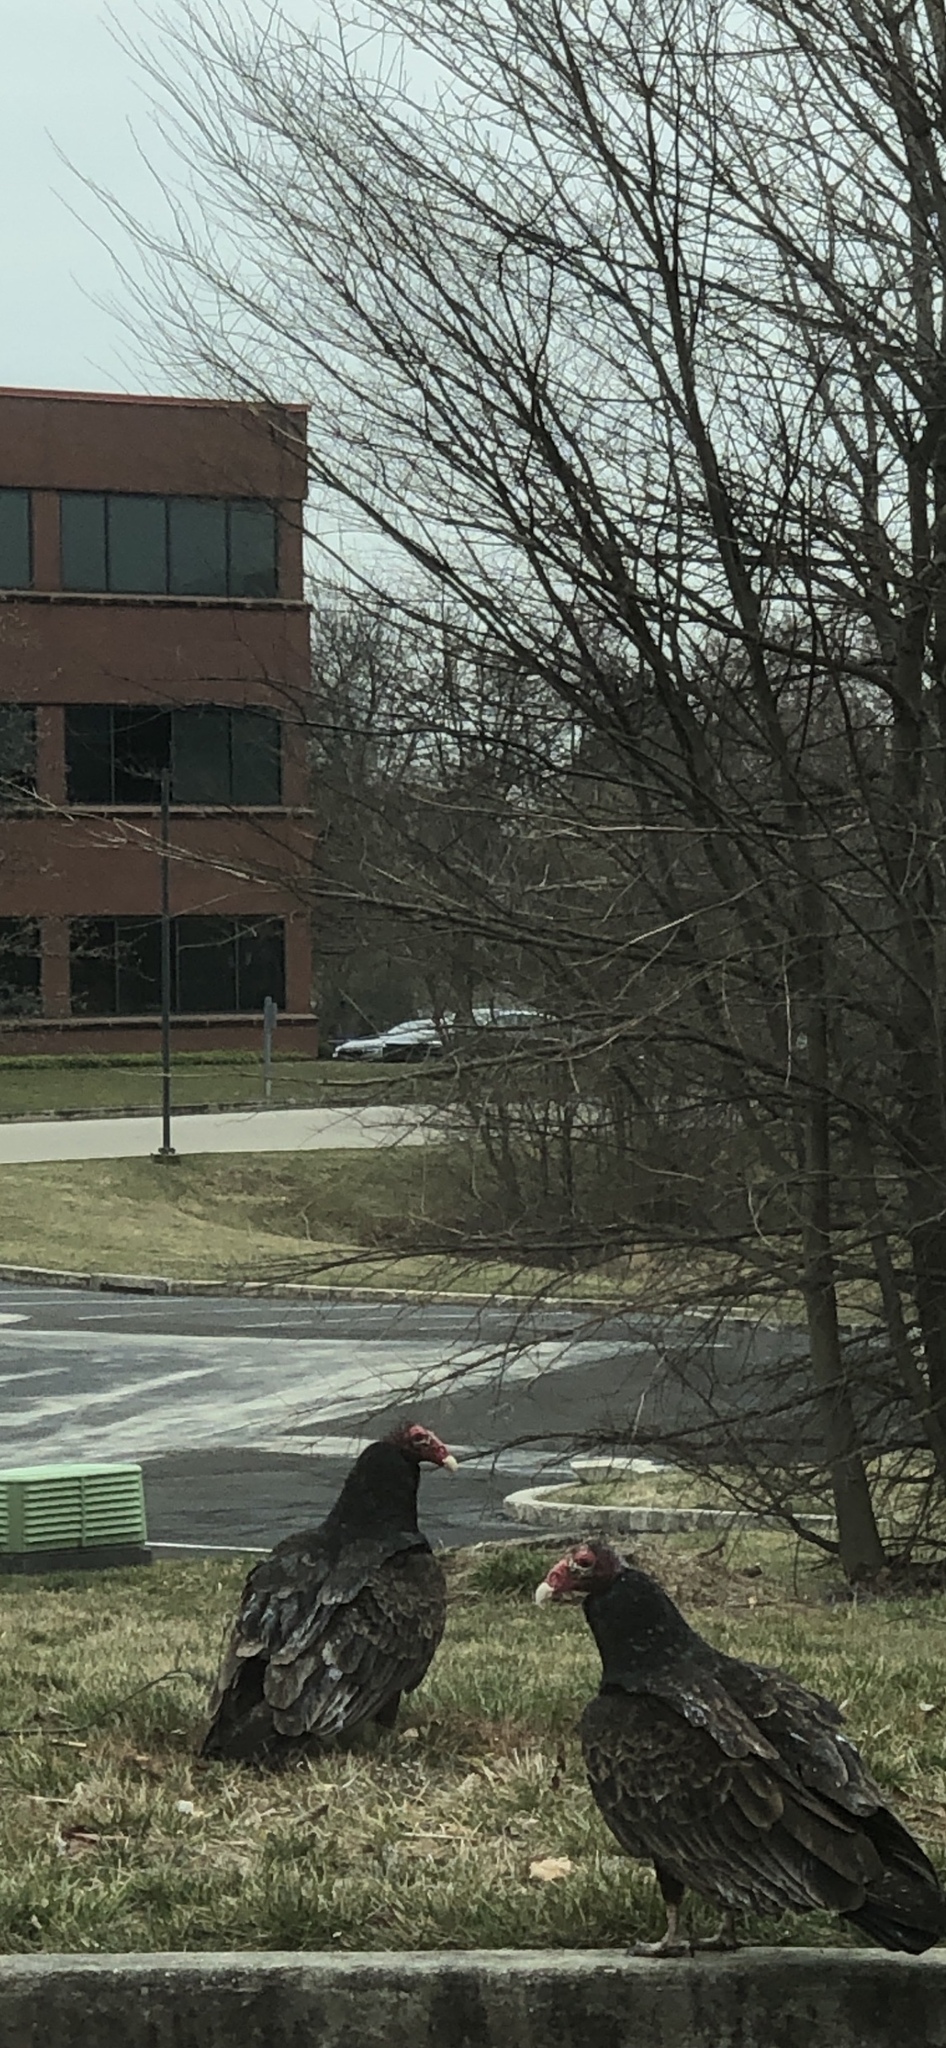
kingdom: Animalia
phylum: Chordata
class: Aves
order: Accipitriformes
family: Cathartidae
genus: Cathartes
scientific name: Cathartes aura
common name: Turkey vulture
